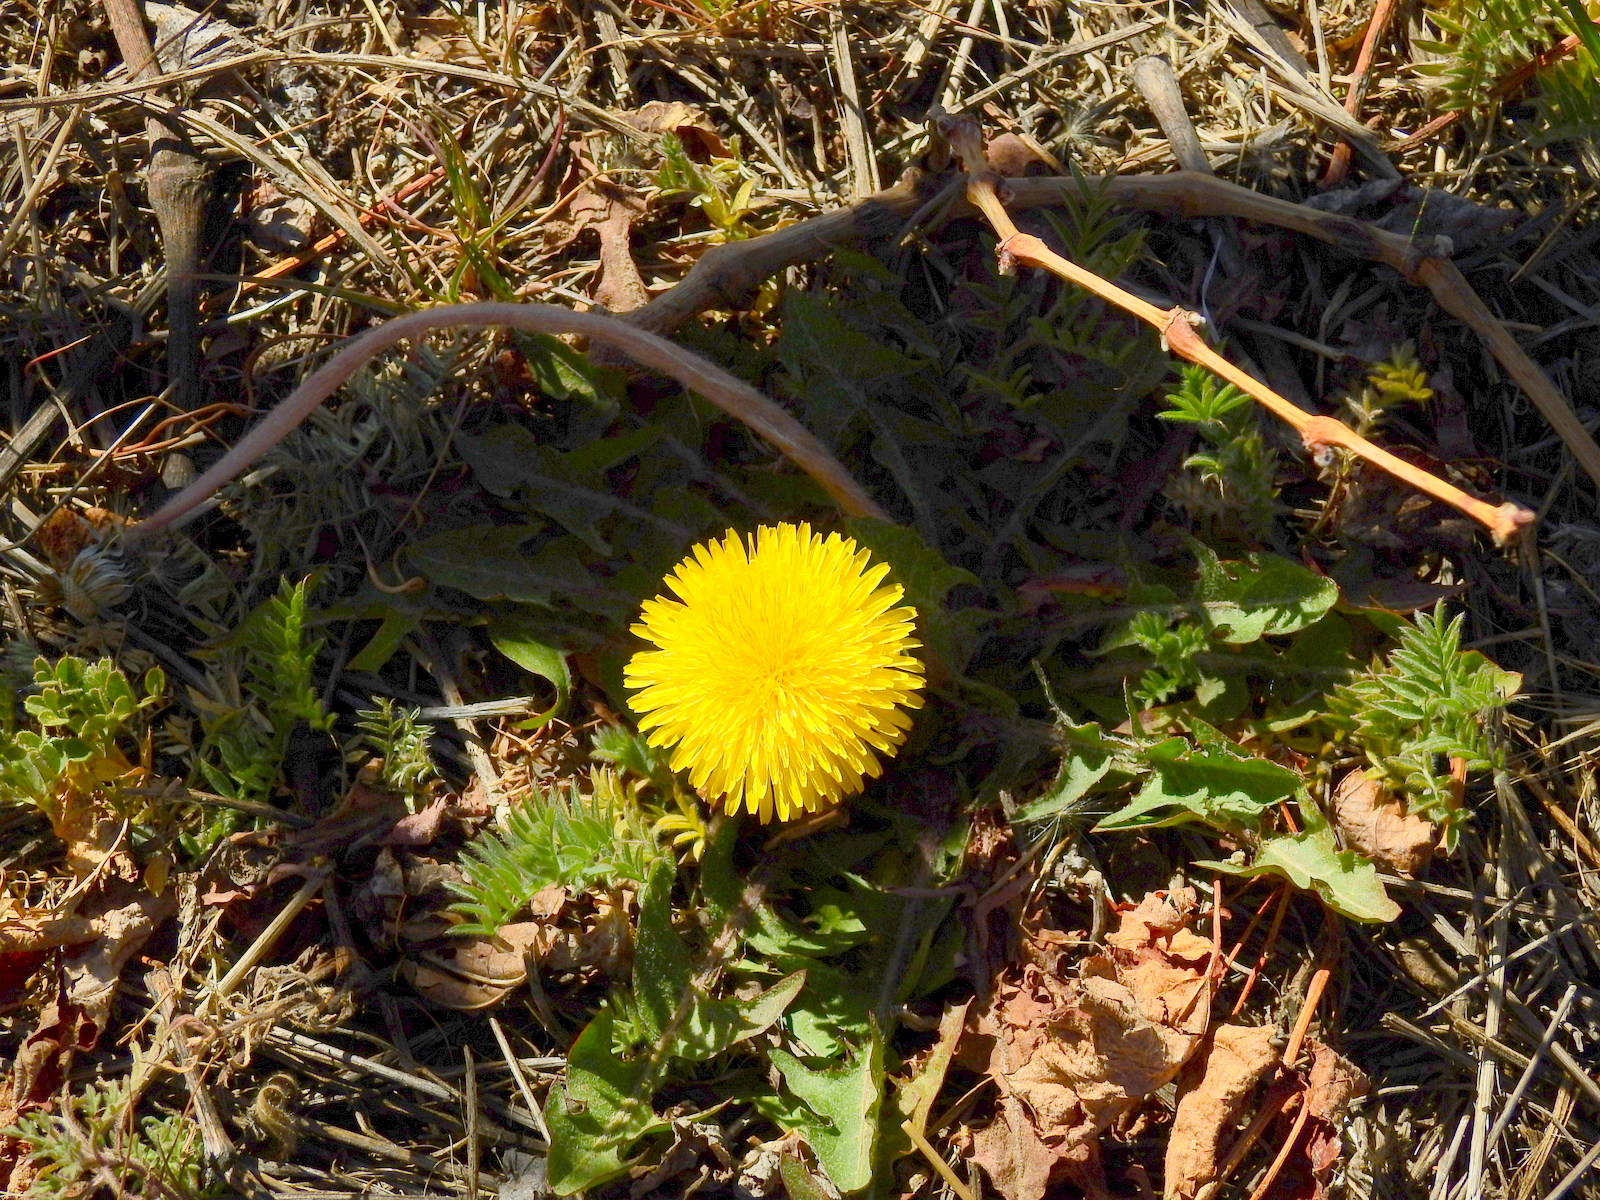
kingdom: Plantae
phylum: Tracheophyta
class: Magnoliopsida
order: Asterales
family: Asteraceae
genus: Taraxacum
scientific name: Taraxacum officinale
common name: Common dandelion
